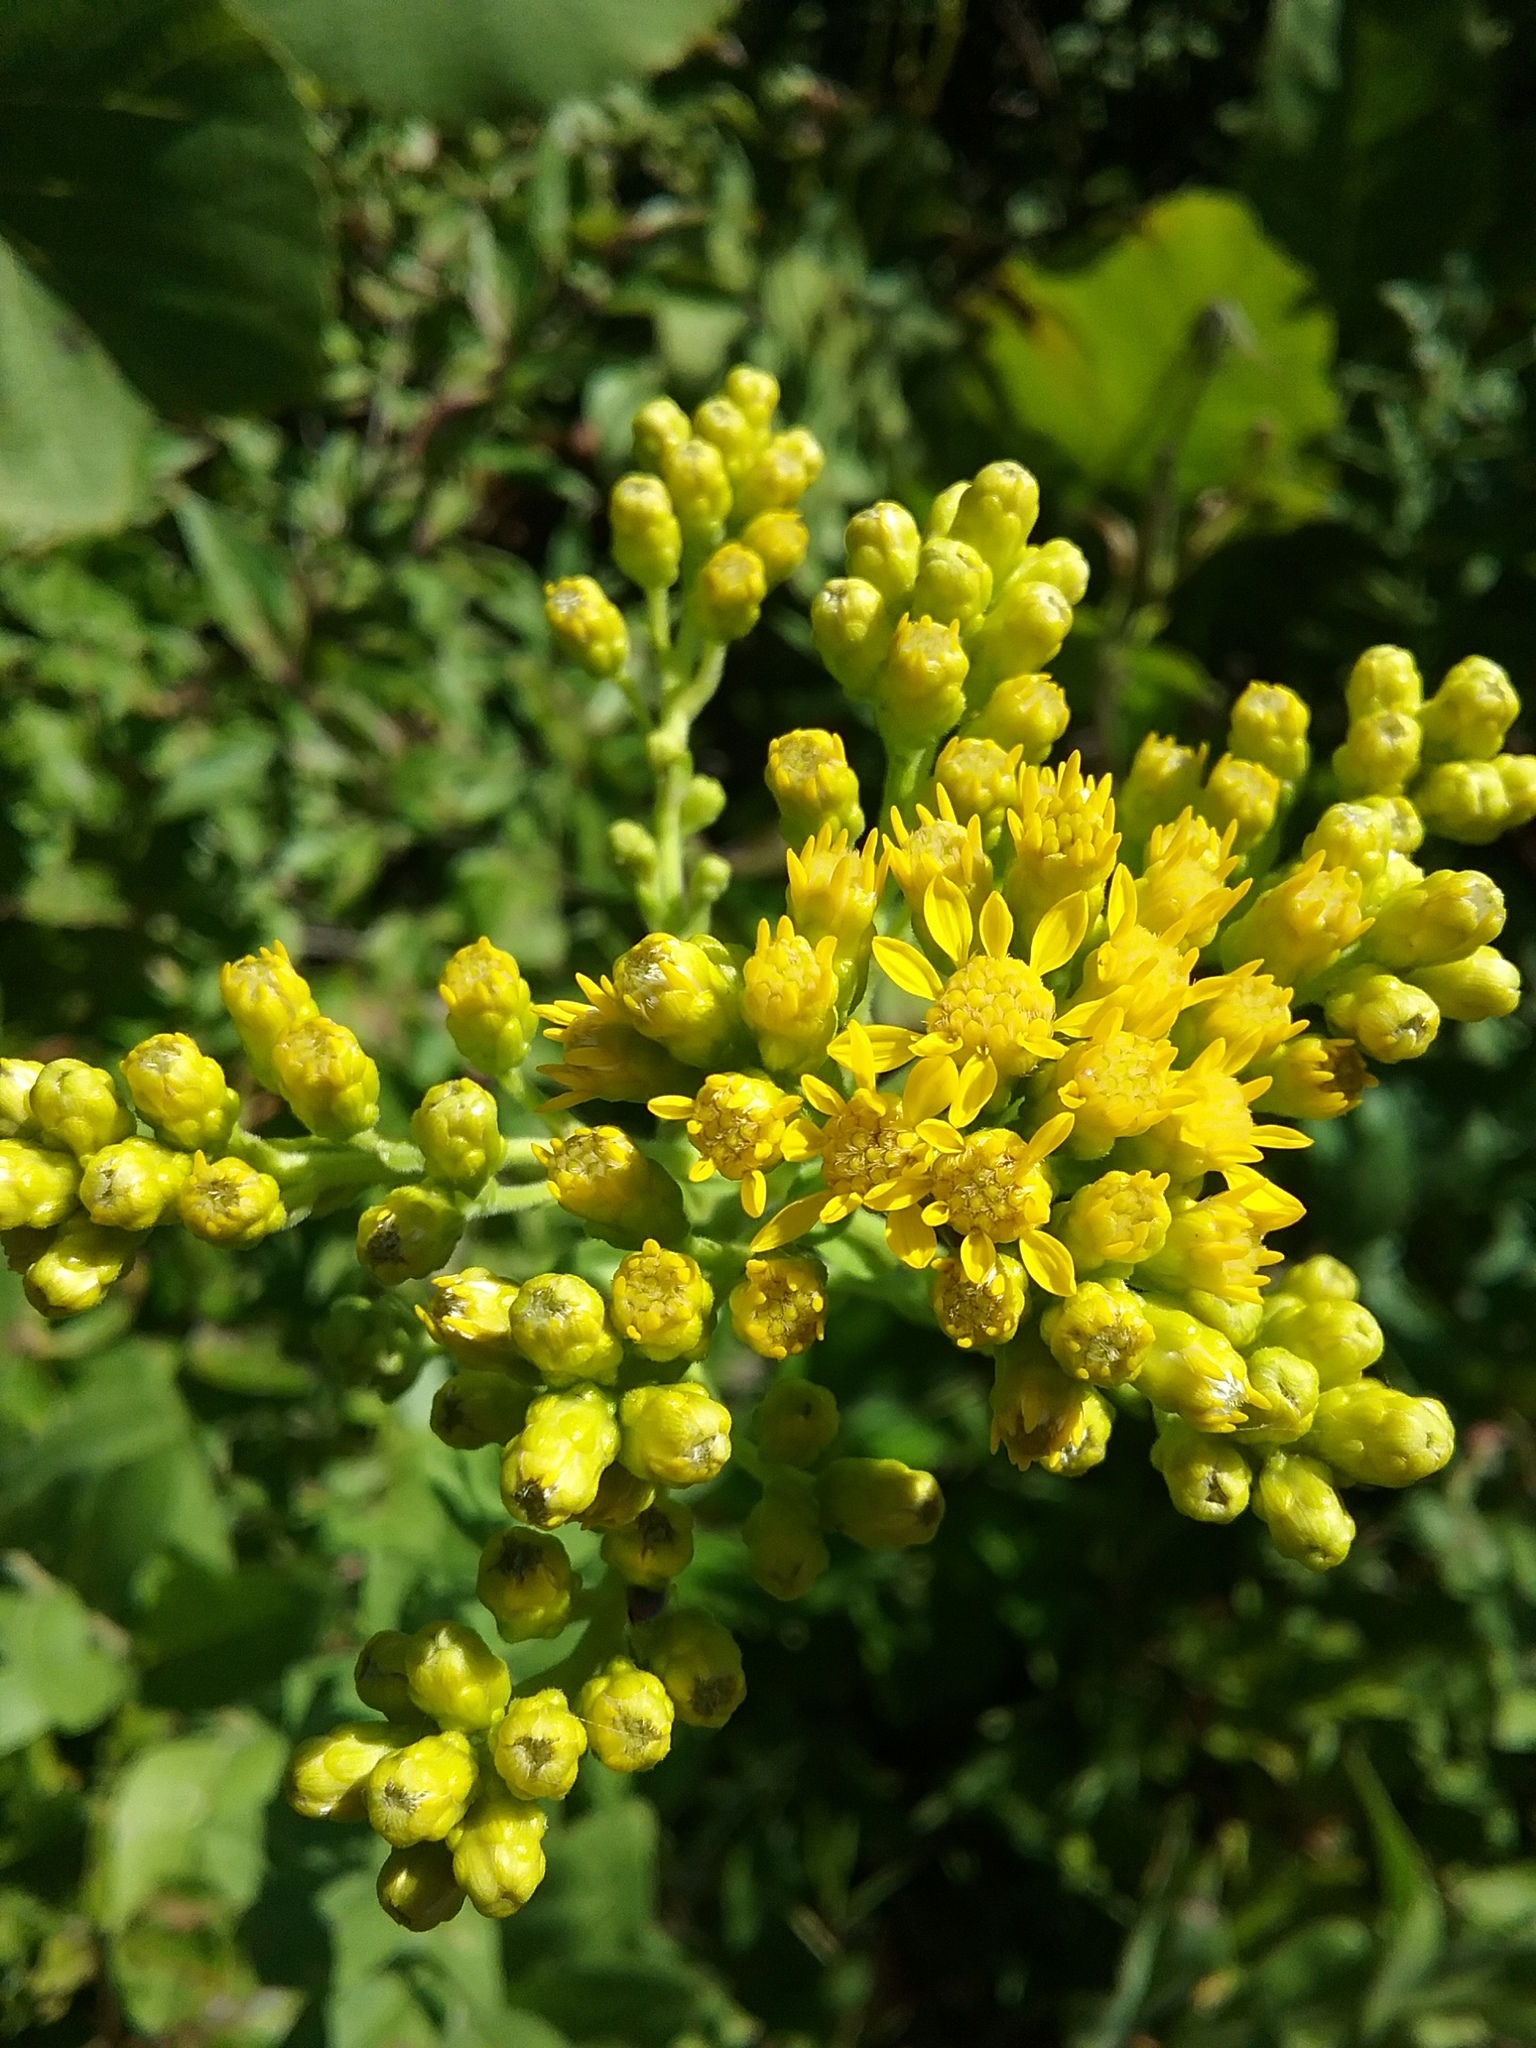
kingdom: Plantae
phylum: Tracheophyta
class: Magnoliopsida
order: Asterales
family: Asteraceae
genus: Solidago
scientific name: Solidago rigida
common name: Rigid goldenrod
